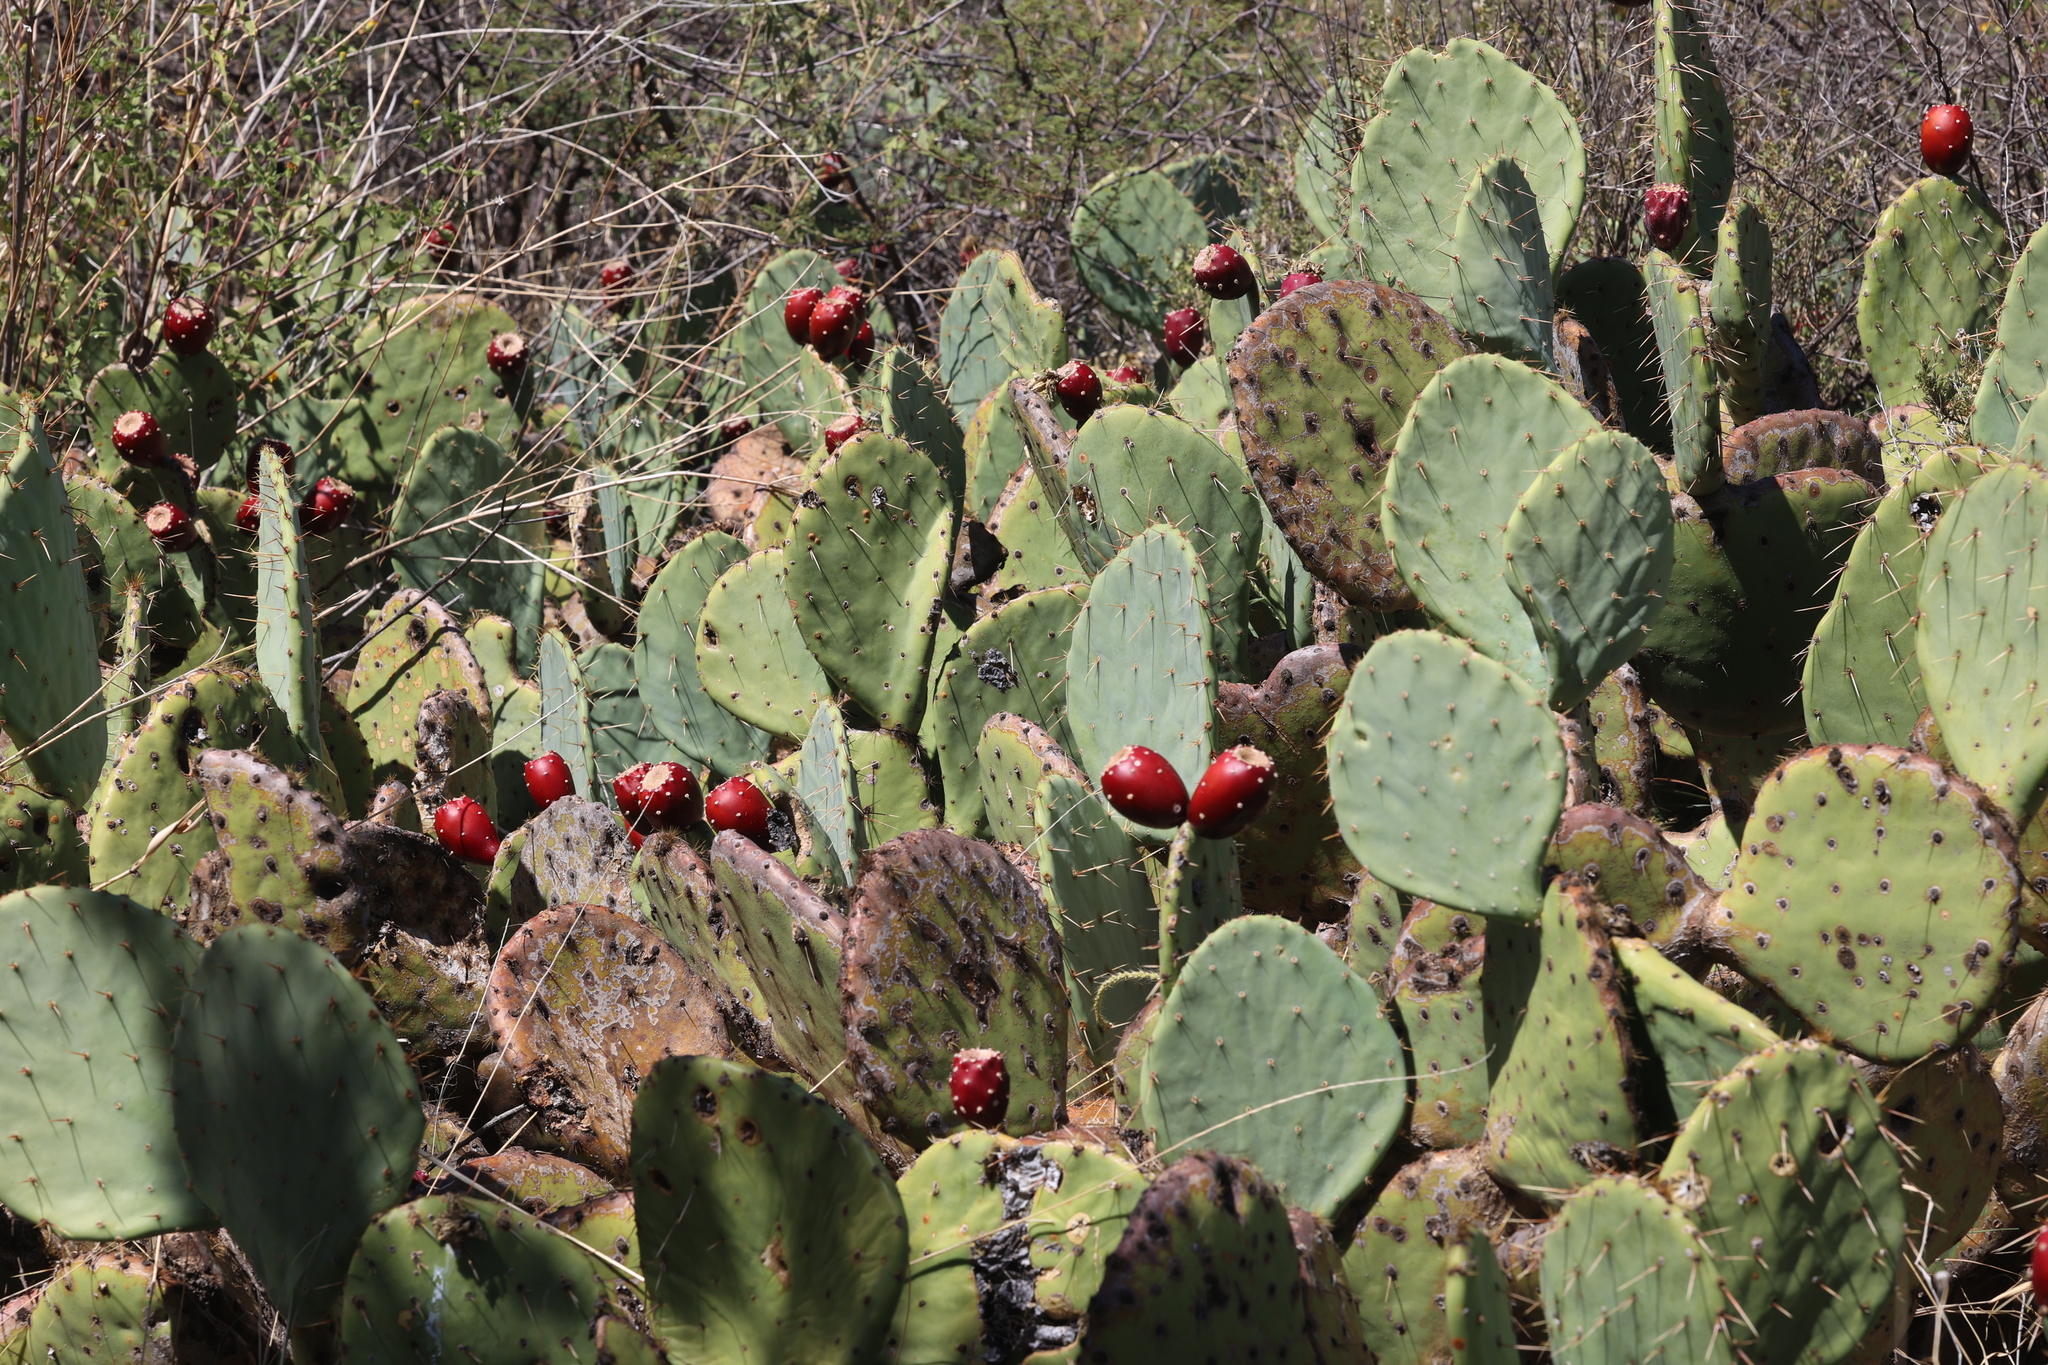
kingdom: Plantae
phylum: Tracheophyta
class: Magnoliopsida
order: Caryophyllales
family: Cactaceae
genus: Opuntia
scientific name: Opuntia engelmannii
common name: Cactus-apple
